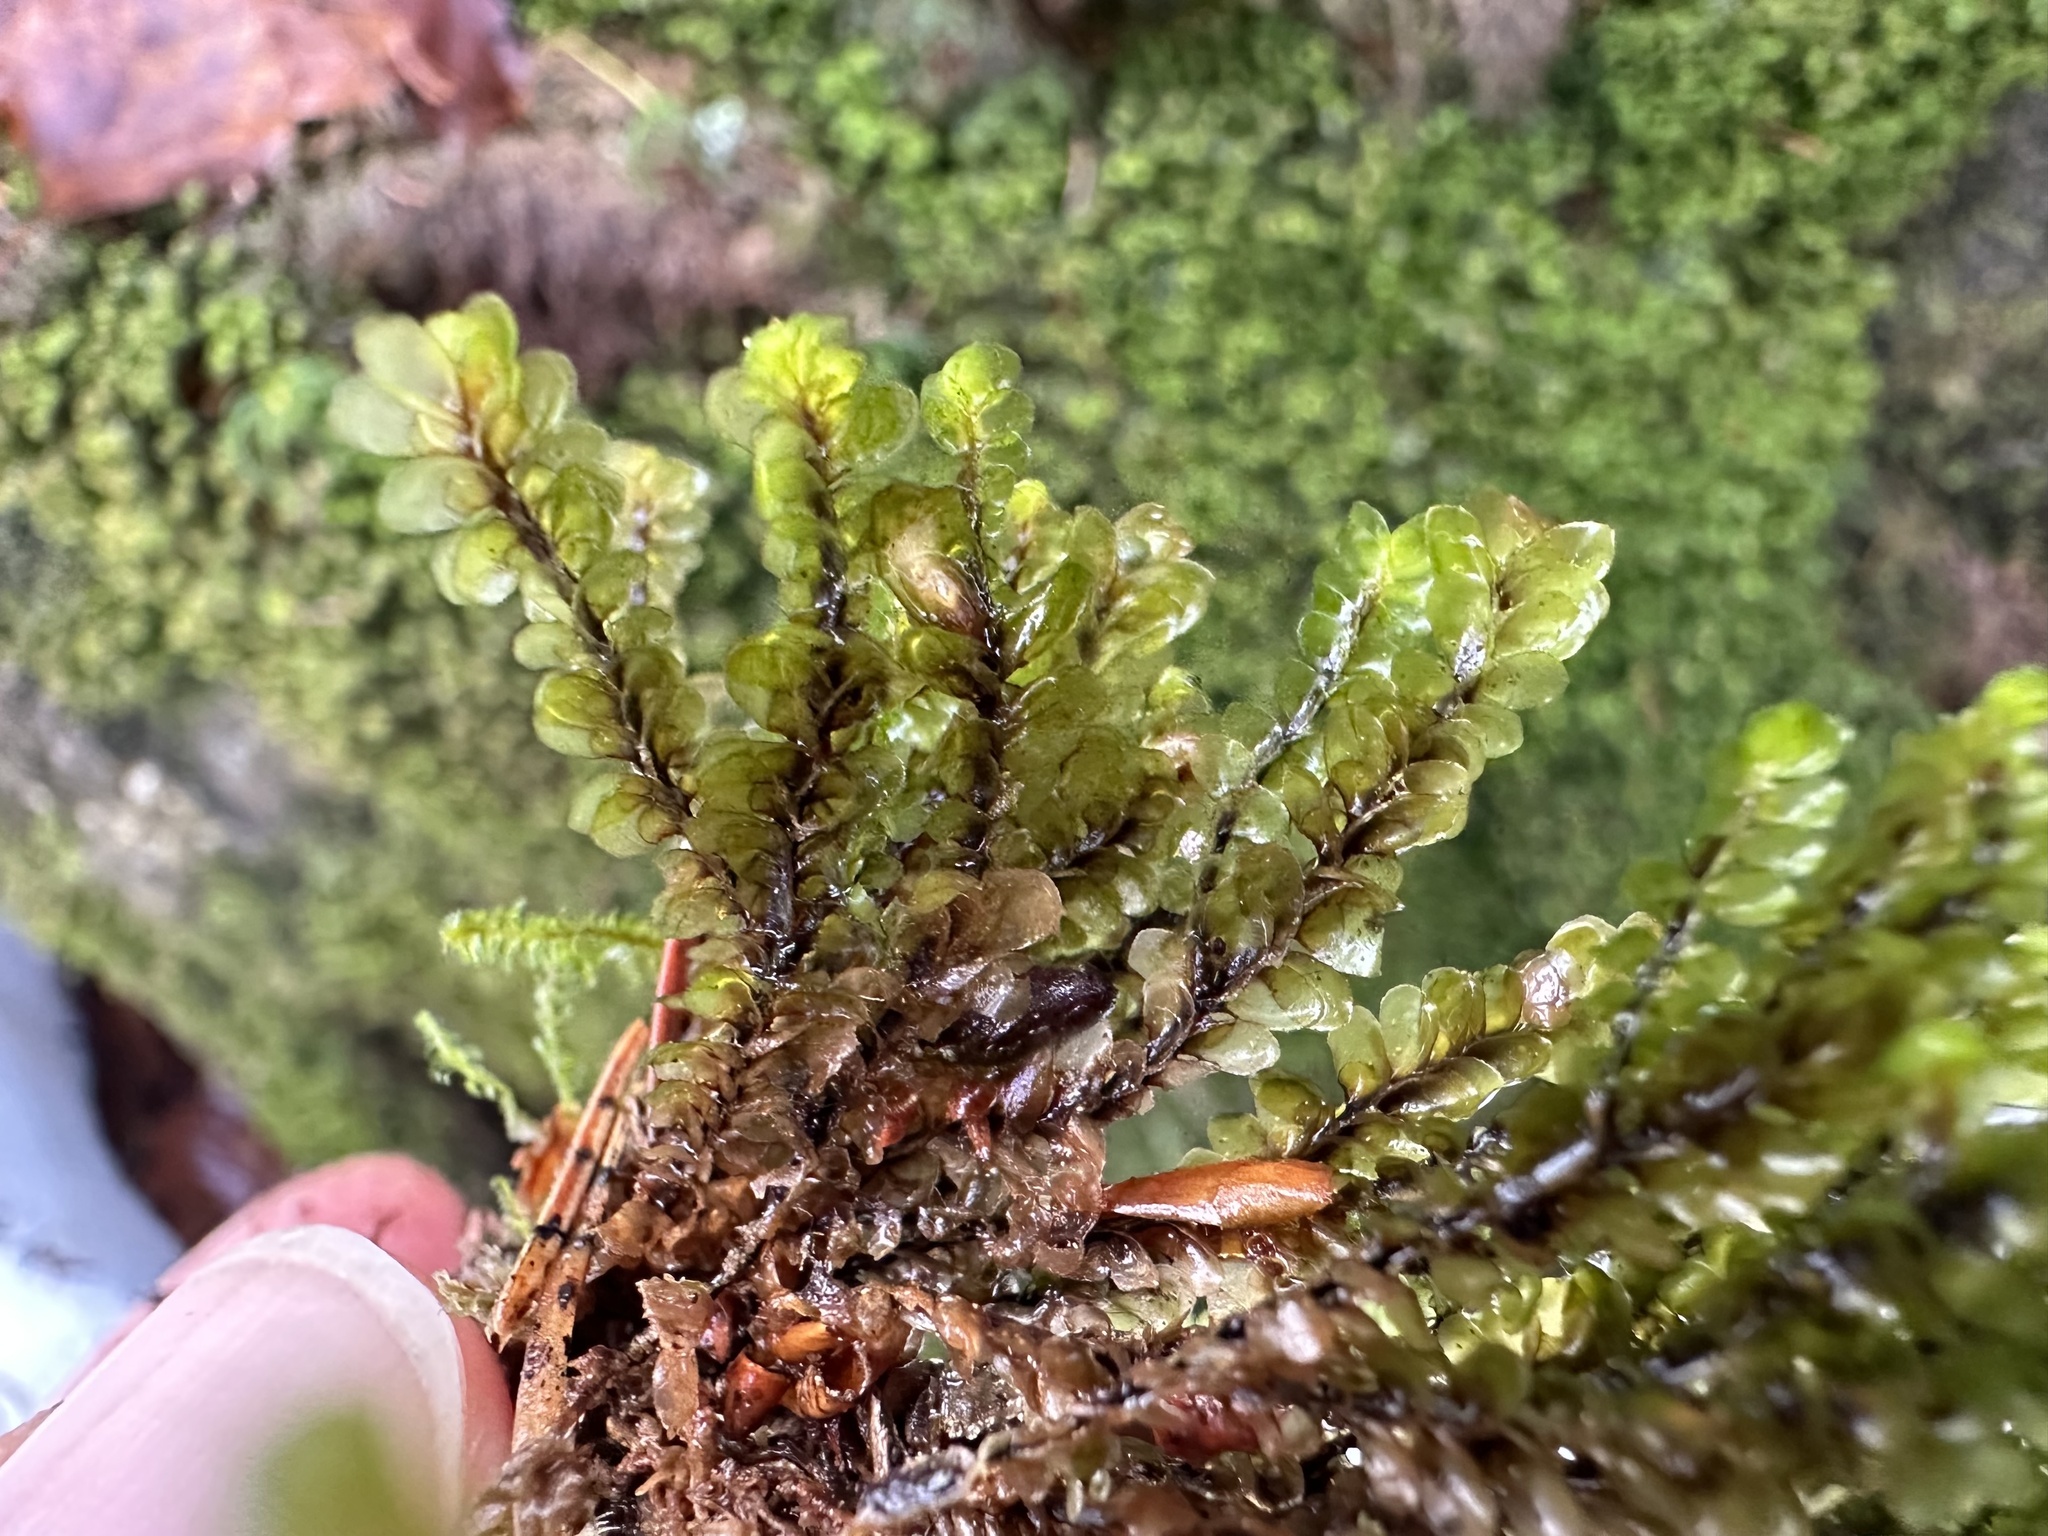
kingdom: Plantae
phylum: Marchantiophyta
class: Jungermanniopsida
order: Jungermanniales
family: Scapaniaceae
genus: Scapania
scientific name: Scapania nemorea
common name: Grove earwort
